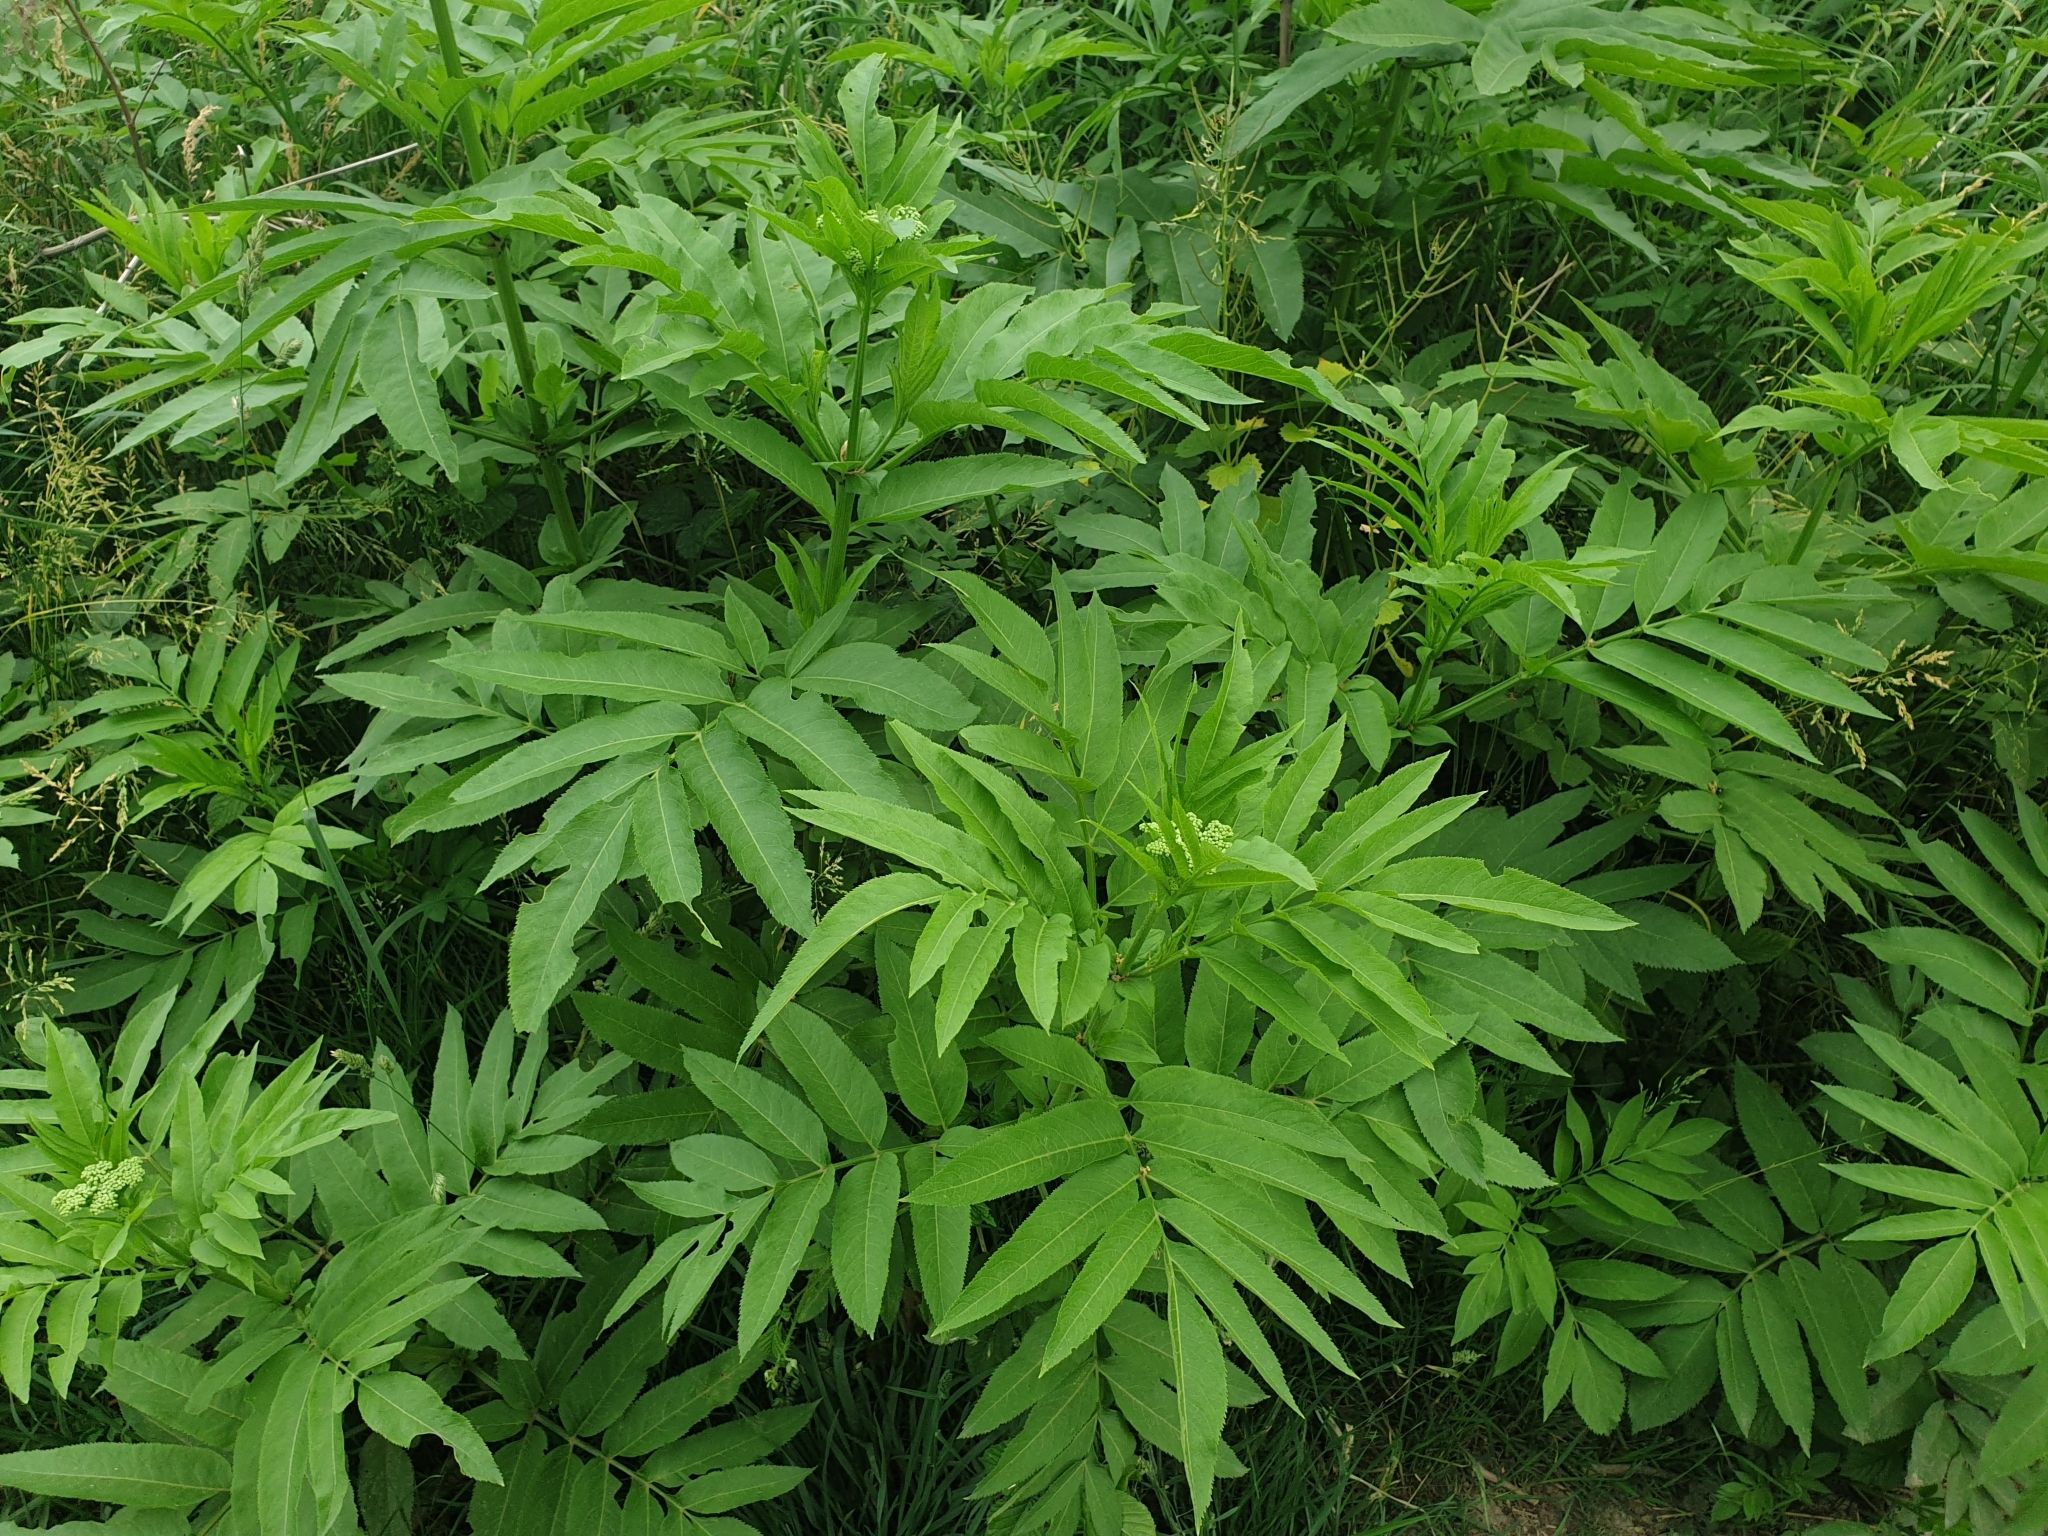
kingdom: Plantae
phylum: Tracheophyta
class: Magnoliopsida
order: Dipsacales
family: Viburnaceae
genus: Sambucus
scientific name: Sambucus ebulus
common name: Dwarf elder
